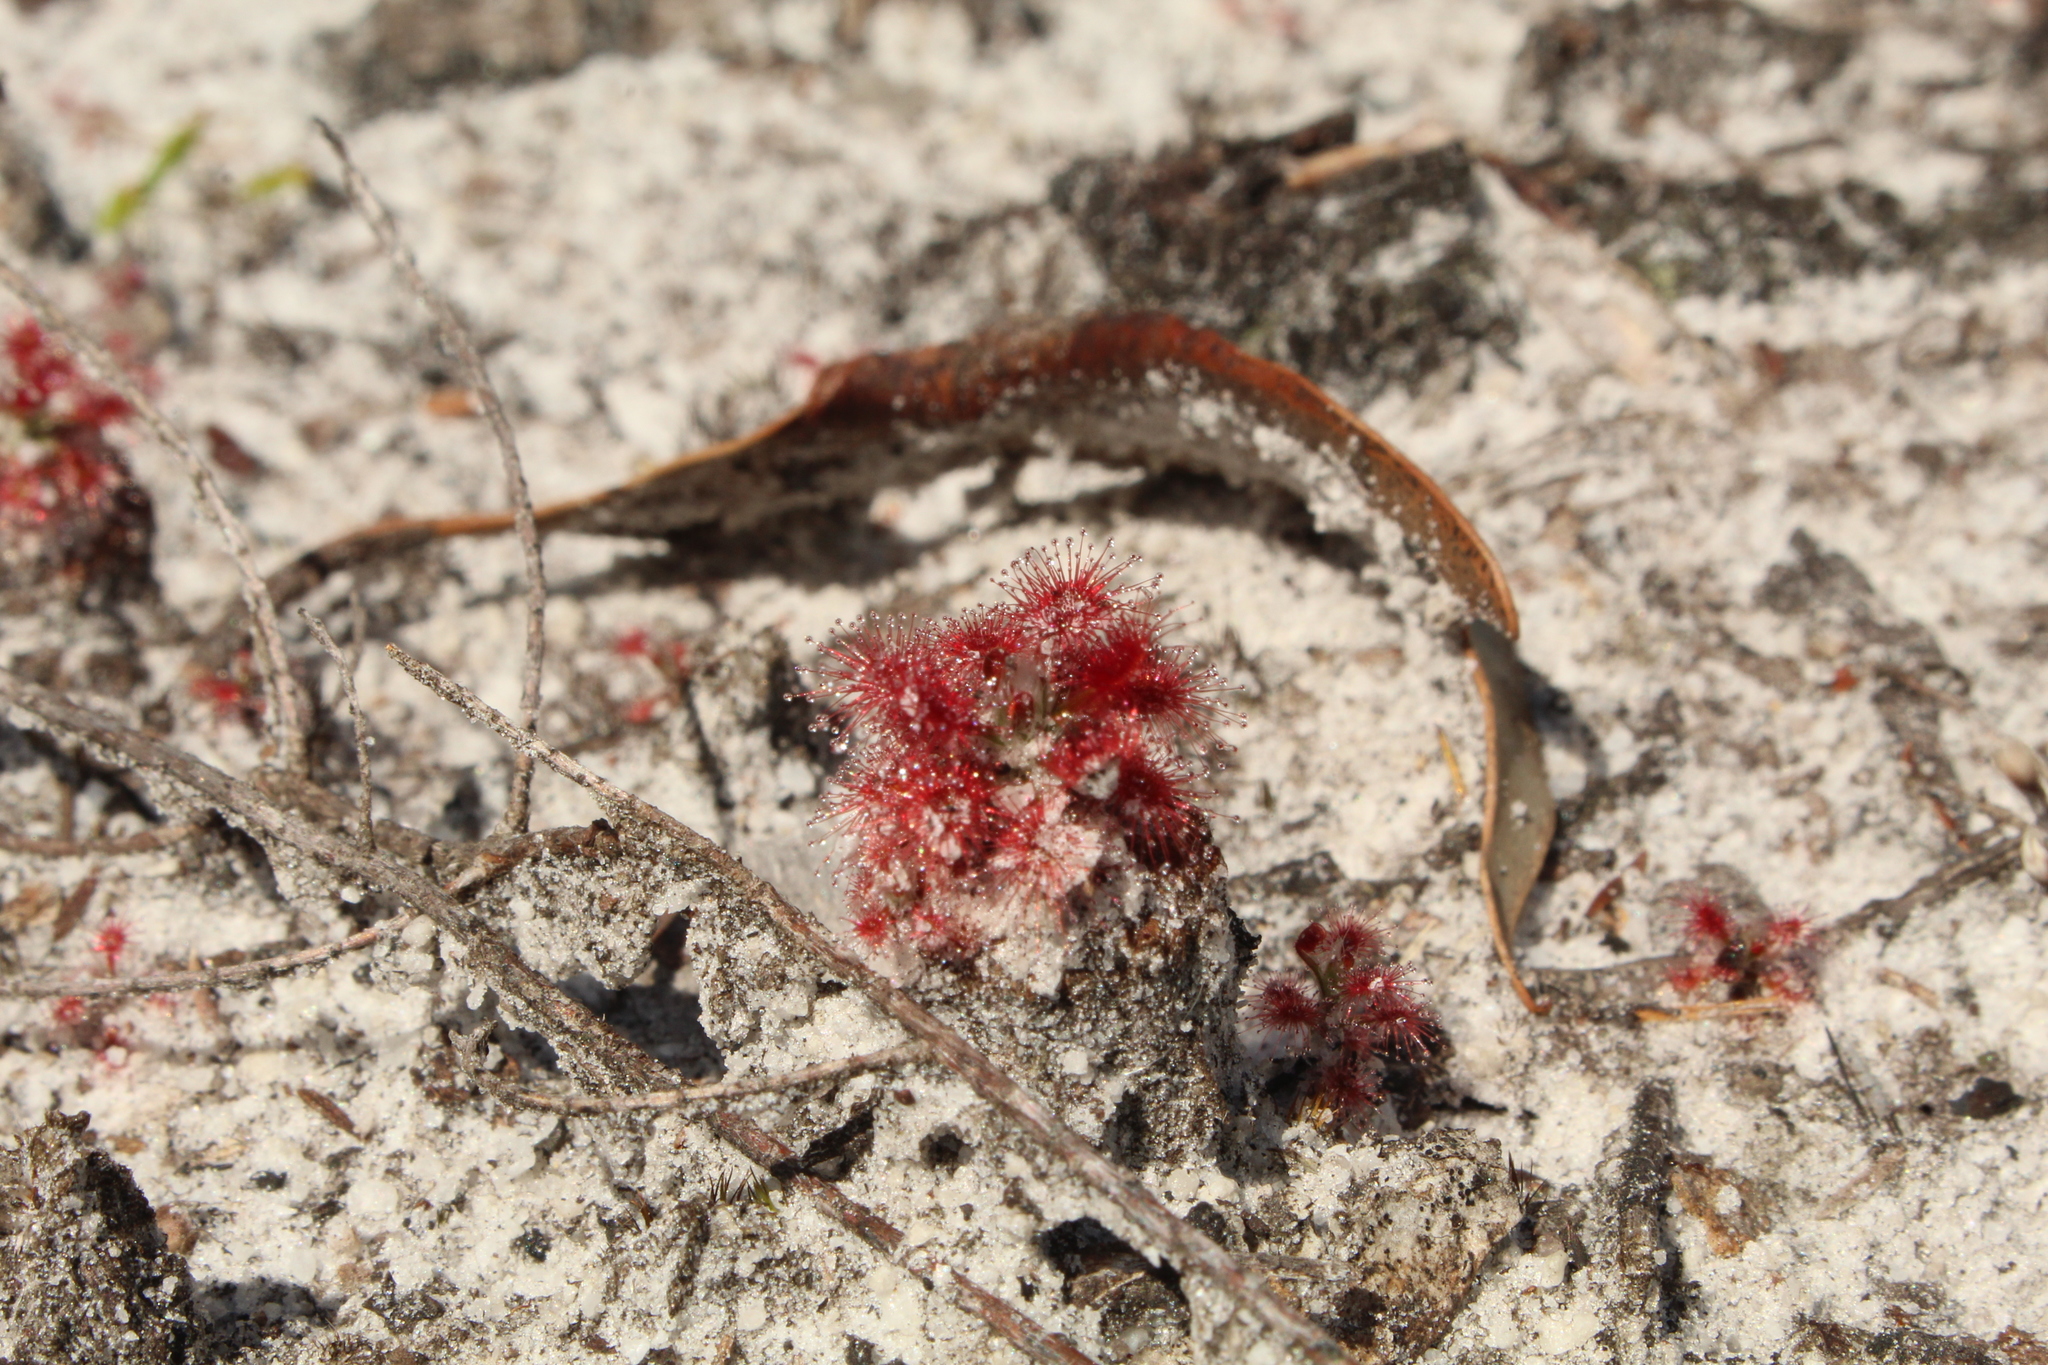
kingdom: Plantae
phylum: Tracheophyta
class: Magnoliopsida
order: Caryophyllales
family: Droseraceae
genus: Drosera
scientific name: Drosera paleacea
